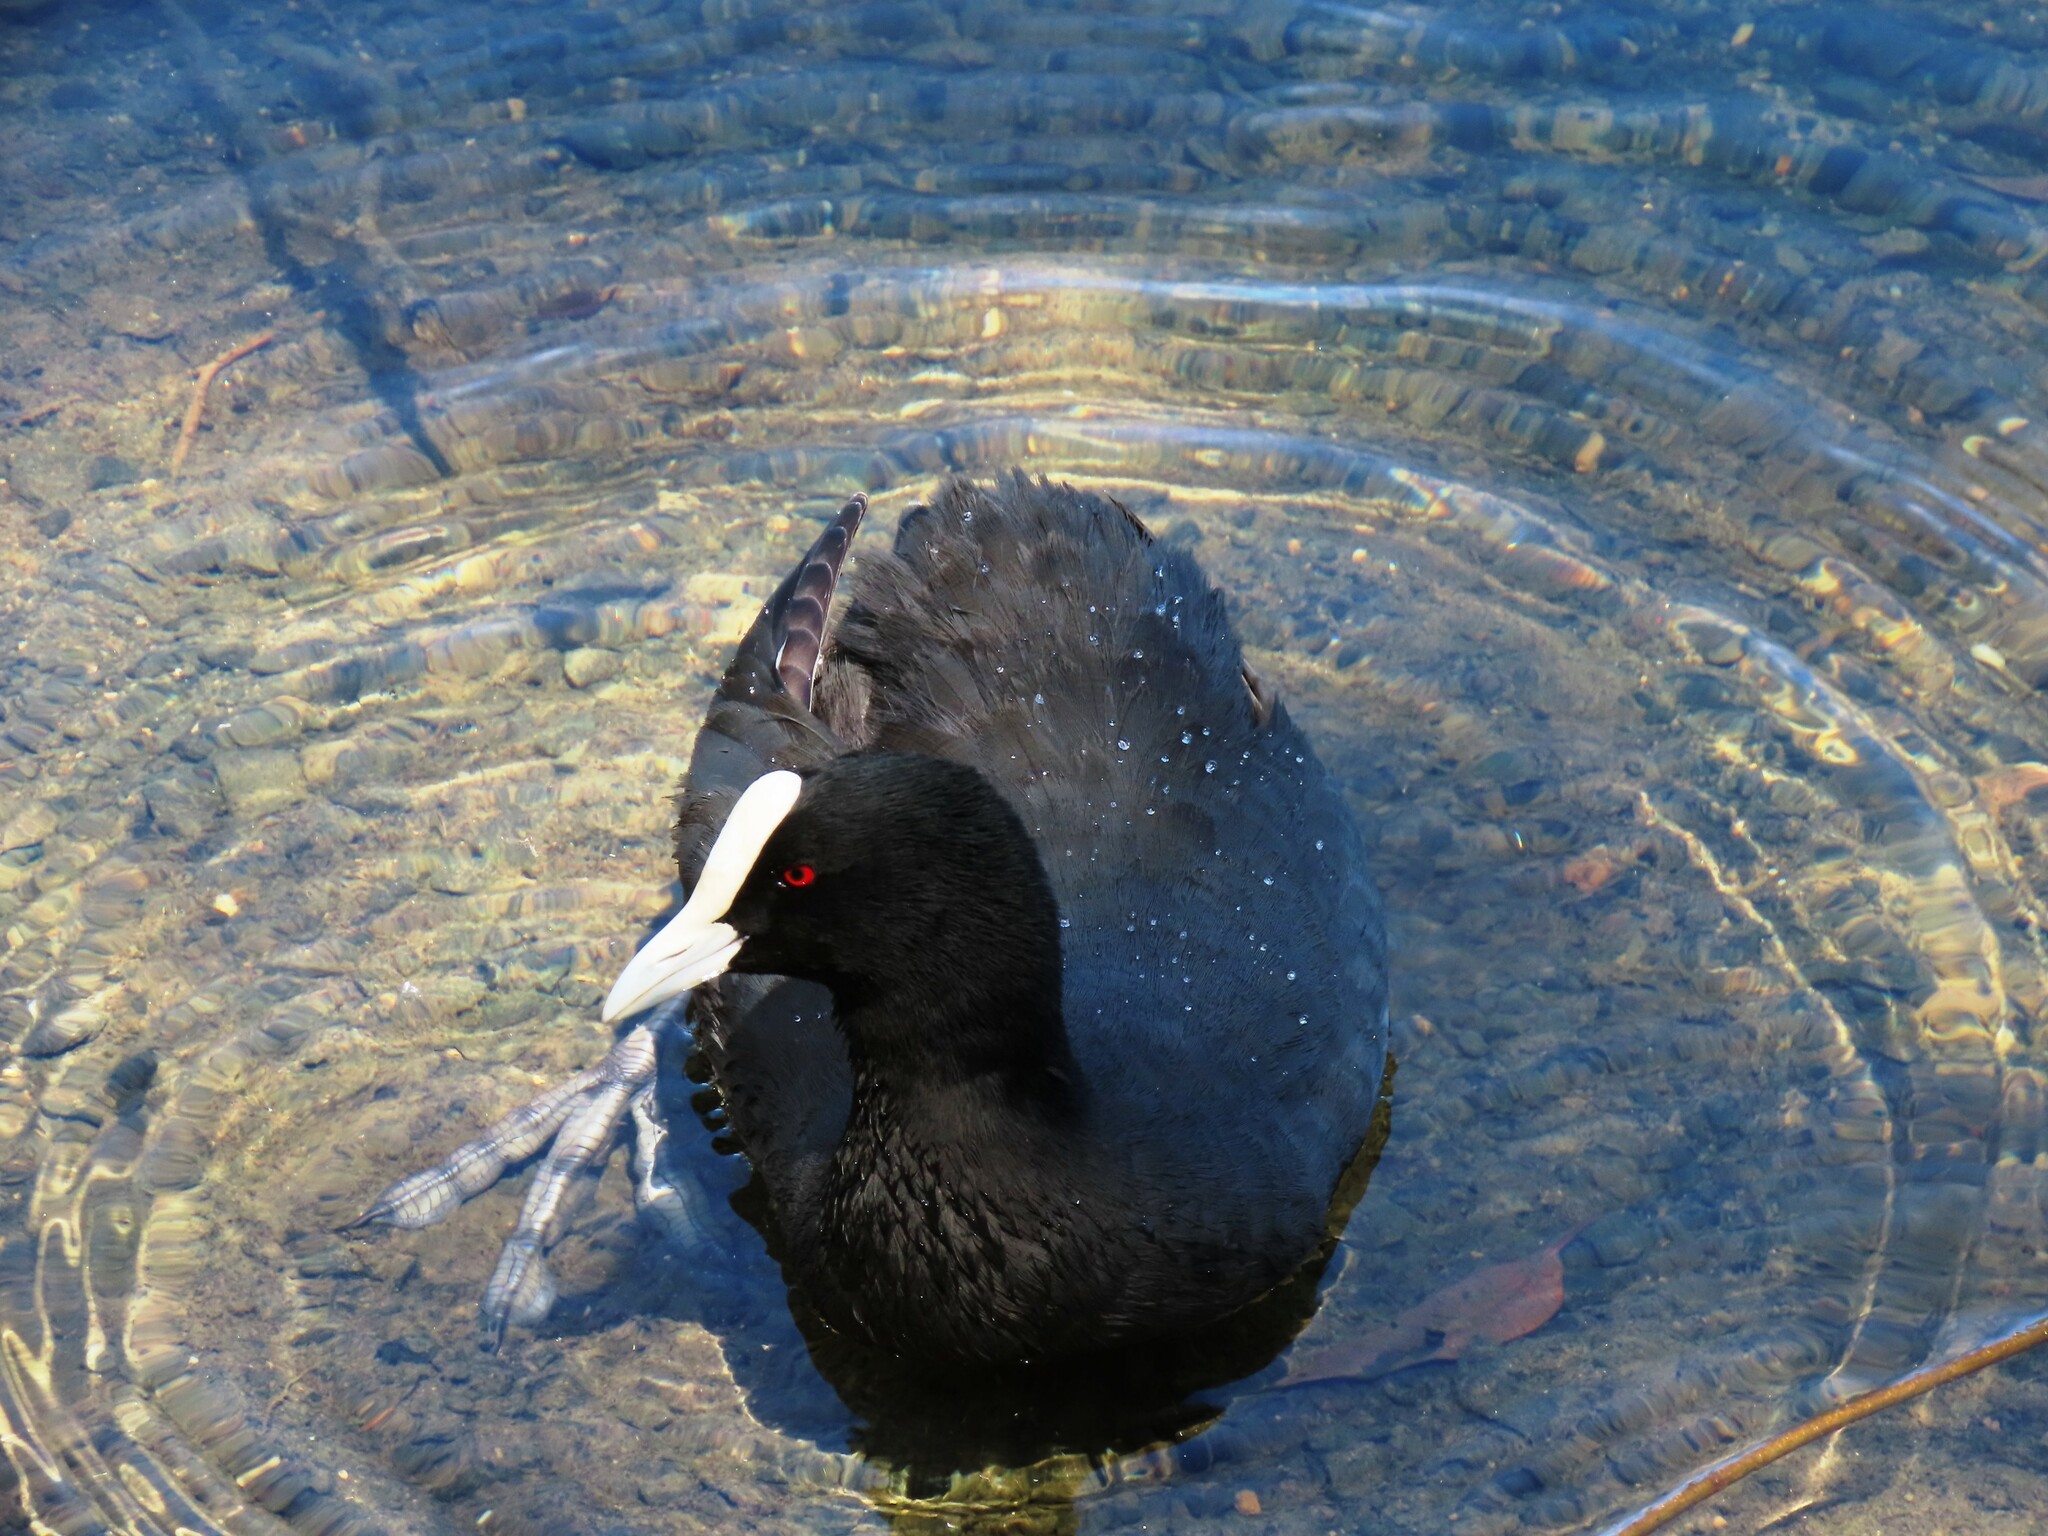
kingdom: Animalia
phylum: Chordata
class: Aves
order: Gruiformes
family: Rallidae
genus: Fulica
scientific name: Fulica atra
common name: Eurasian coot
